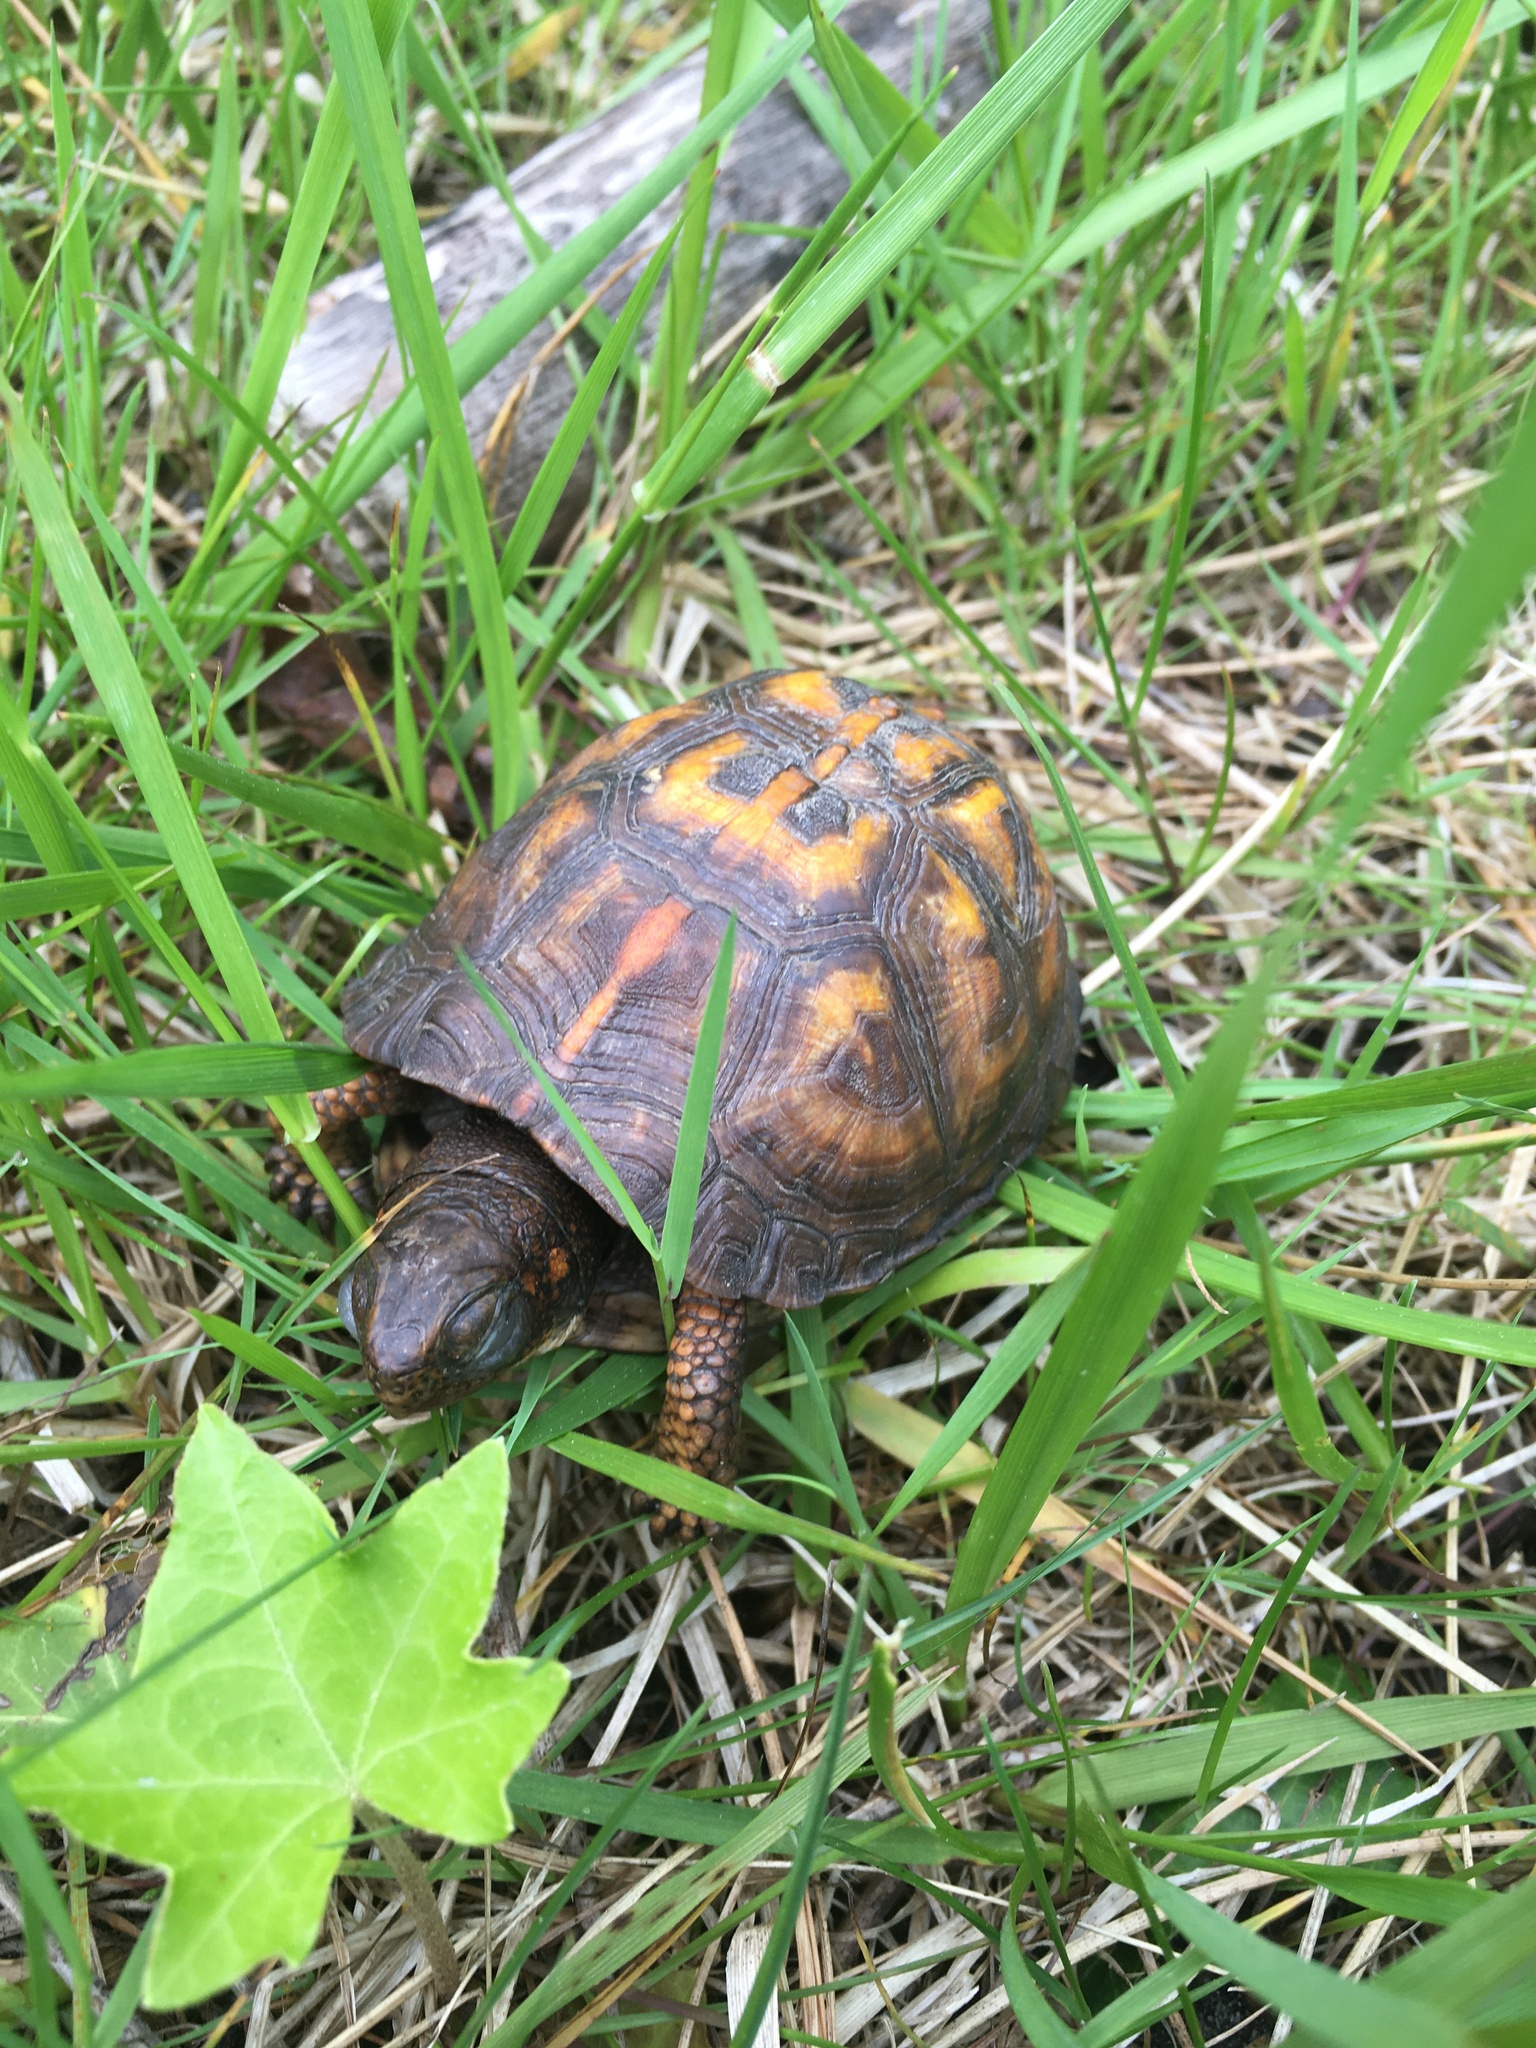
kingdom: Animalia
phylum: Chordata
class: Testudines
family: Emydidae
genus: Terrapene
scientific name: Terrapene carolina
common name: Common box turtle
